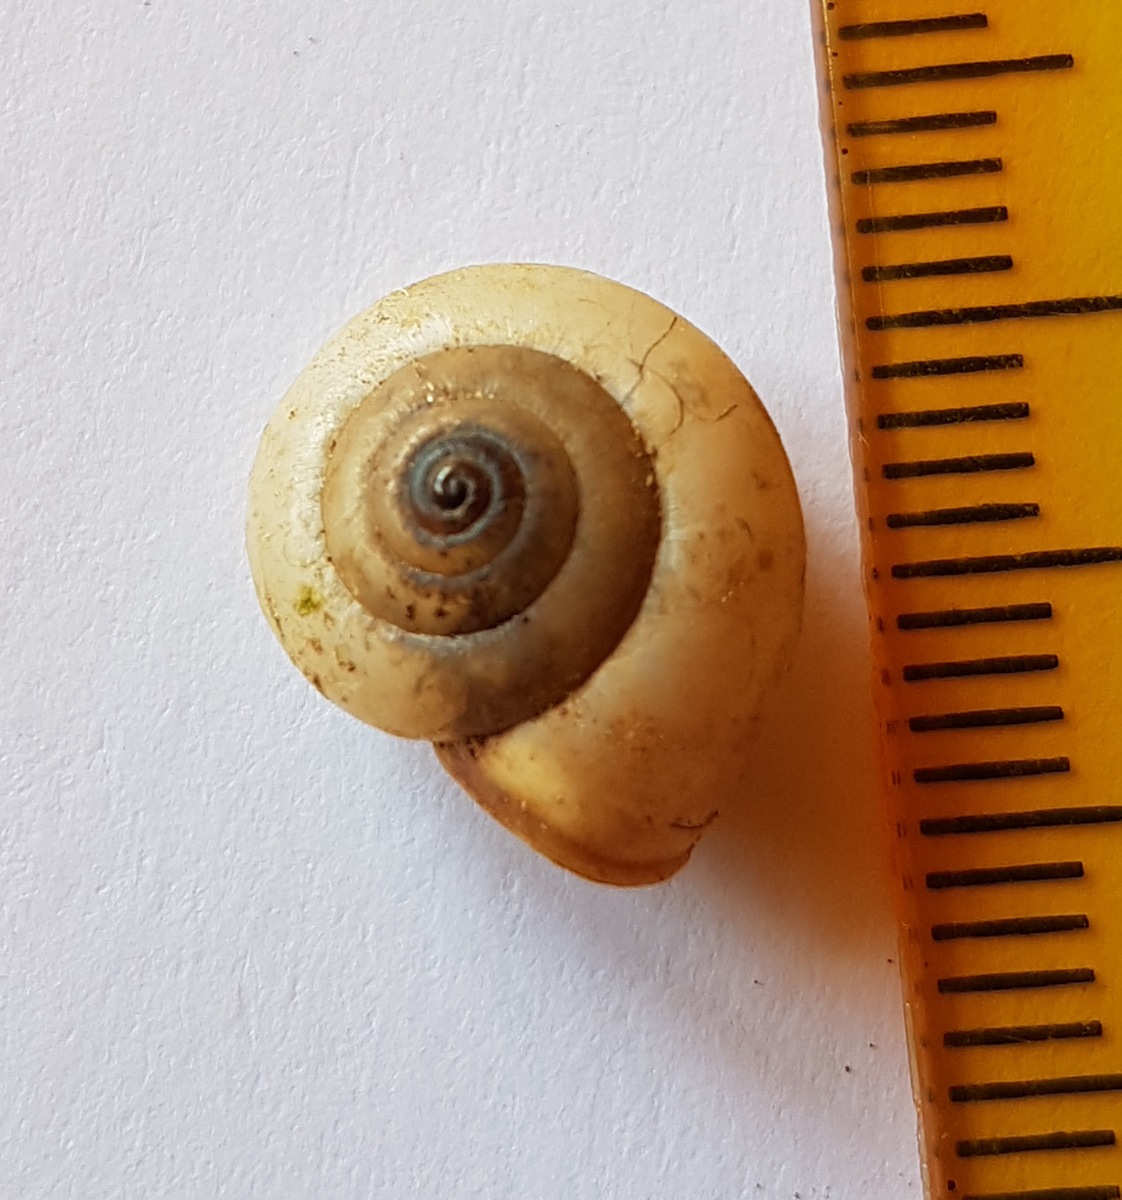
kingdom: Animalia
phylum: Mollusca
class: Gastropoda
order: Stylommatophora
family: Hygromiidae
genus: Monacha
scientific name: Monacha cartusiana
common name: Carthusian snail
